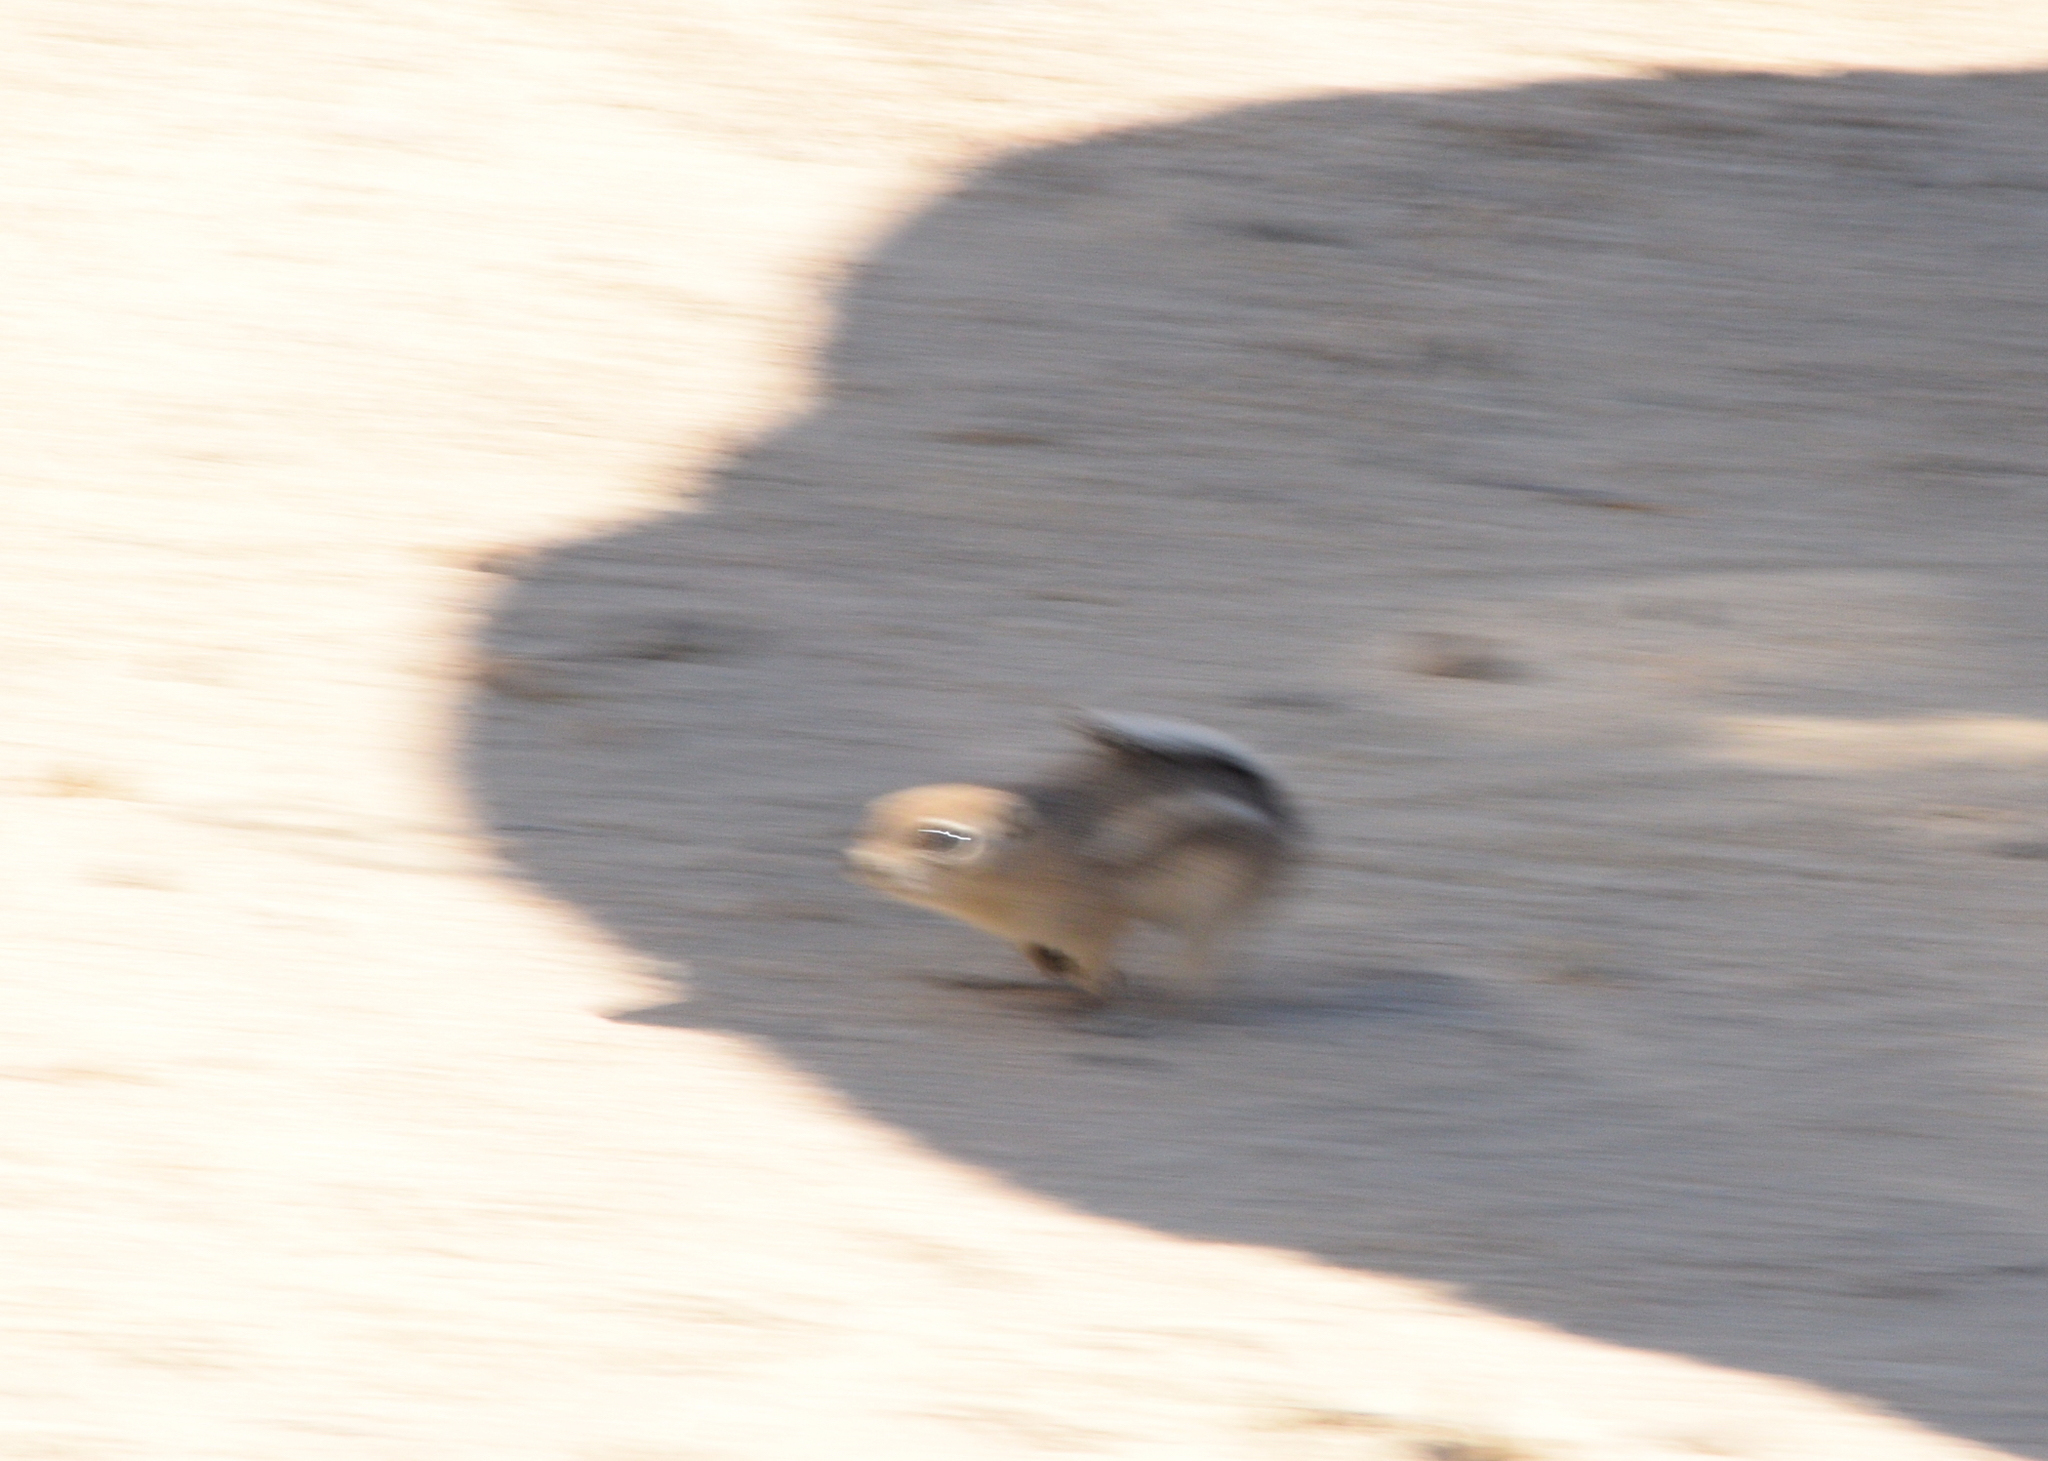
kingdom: Animalia
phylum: Chordata
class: Mammalia
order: Rodentia
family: Sciuridae
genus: Ammospermophilus
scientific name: Ammospermophilus leucurus
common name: White-tailed antelope squirrel
